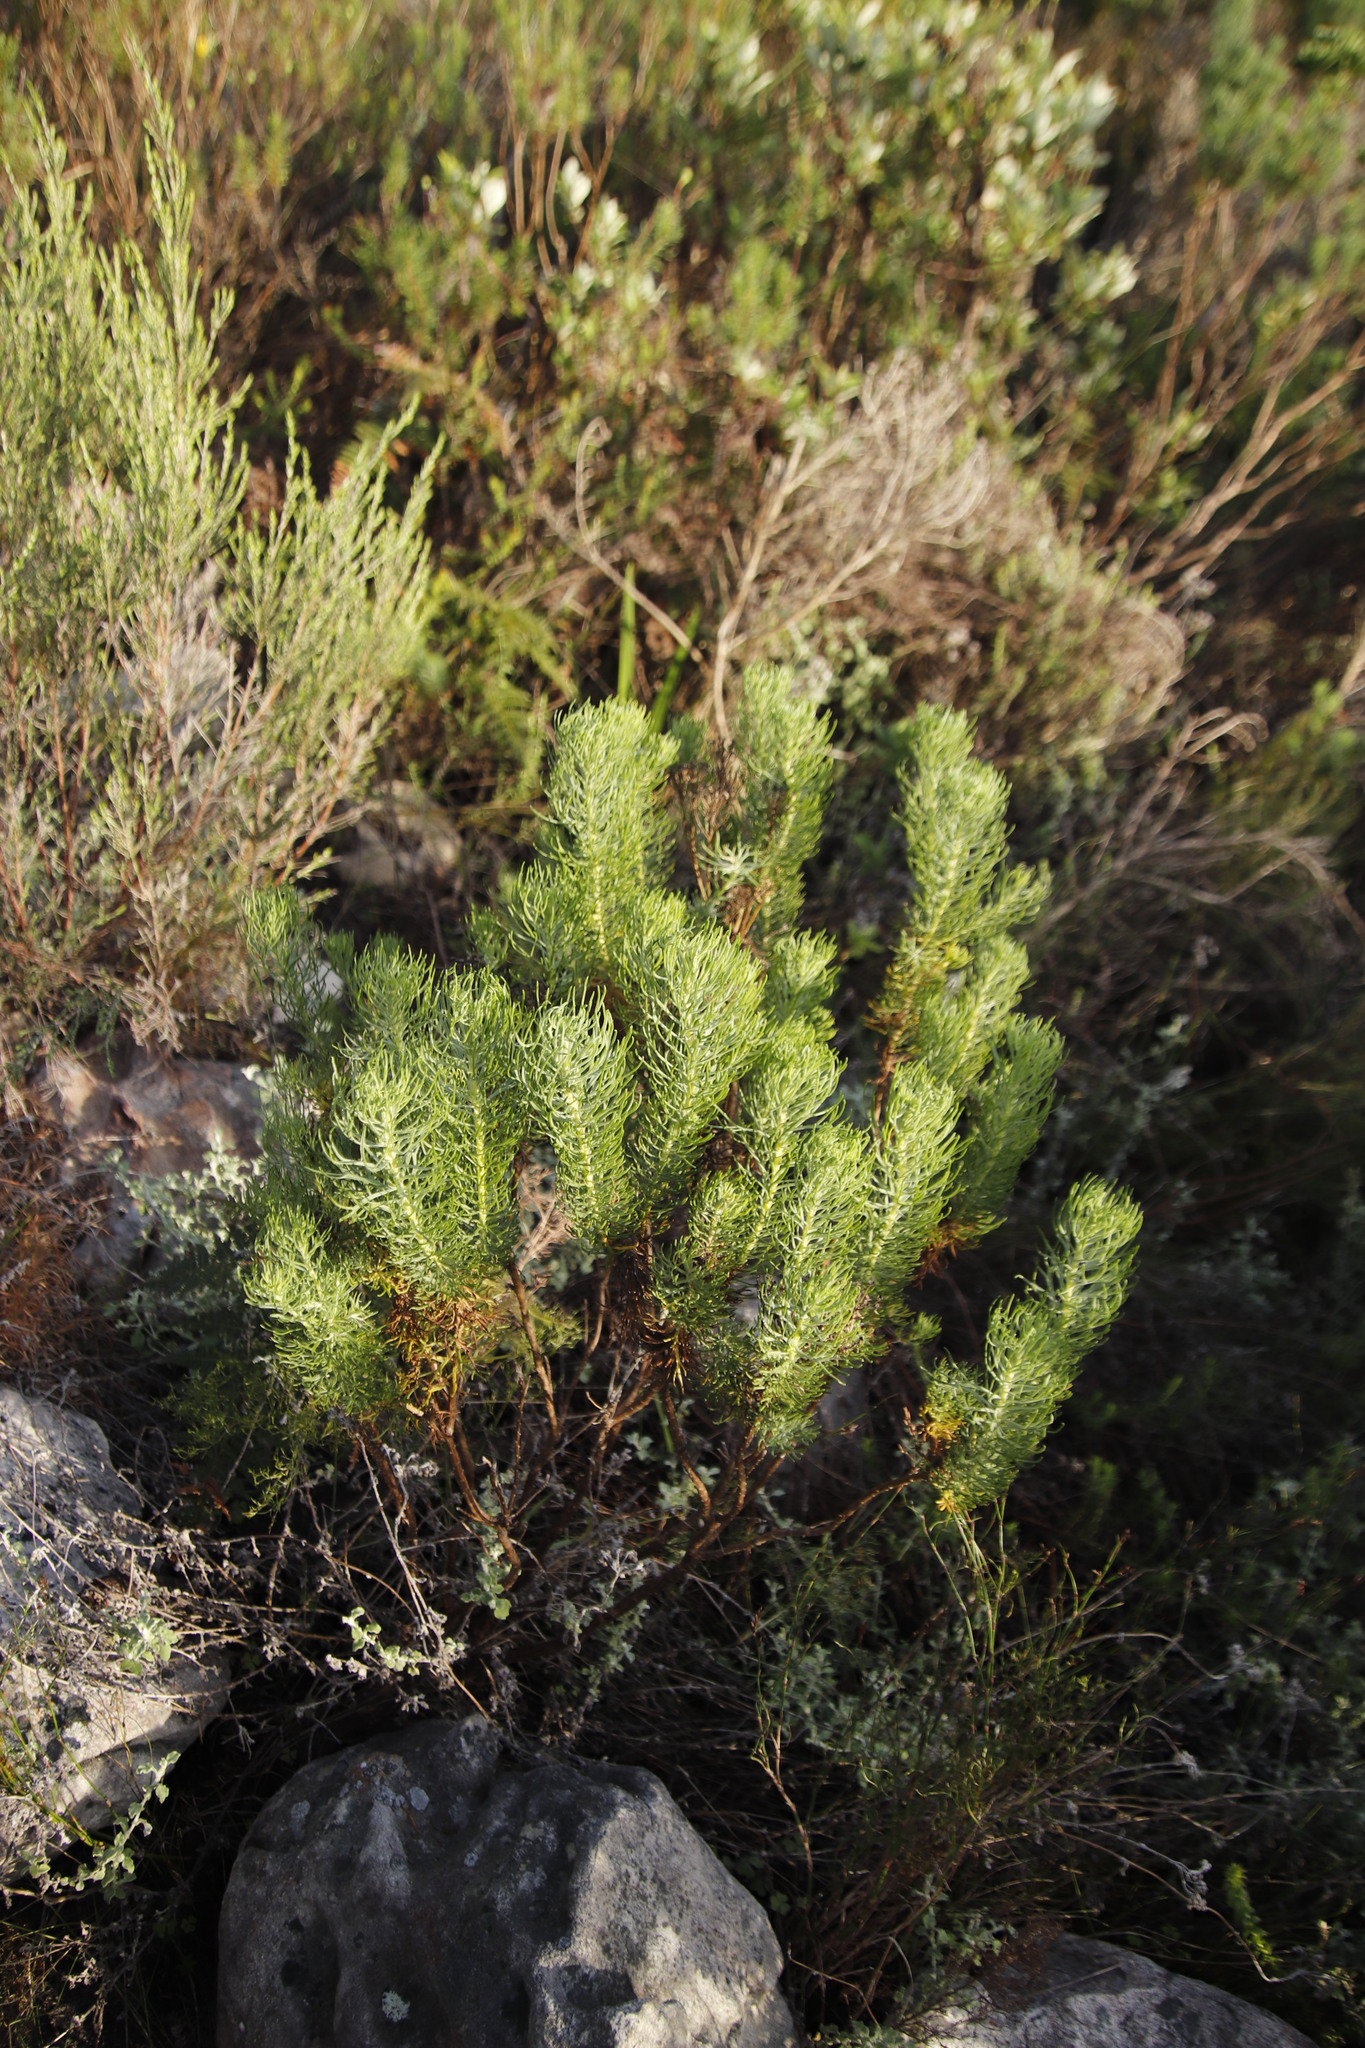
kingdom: Plantae
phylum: Tracheophyta
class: Magnoliopsida
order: Asterales
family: Asteraceae
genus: Athanasia
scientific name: Athanasia crithmifolia
